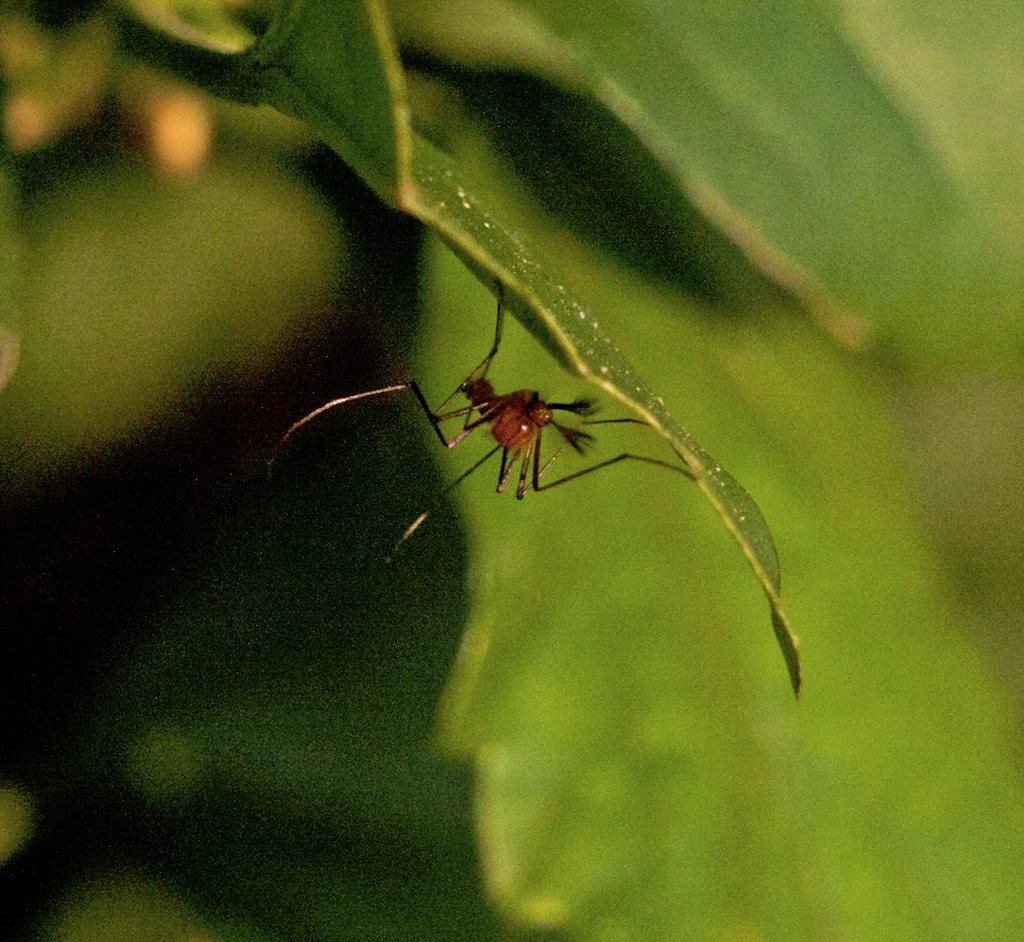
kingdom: Animalia
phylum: Arthropoda
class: Insecta
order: Diptera
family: Culicidae
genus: Coquillettidia
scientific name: Coquillettidia xanthogaster
